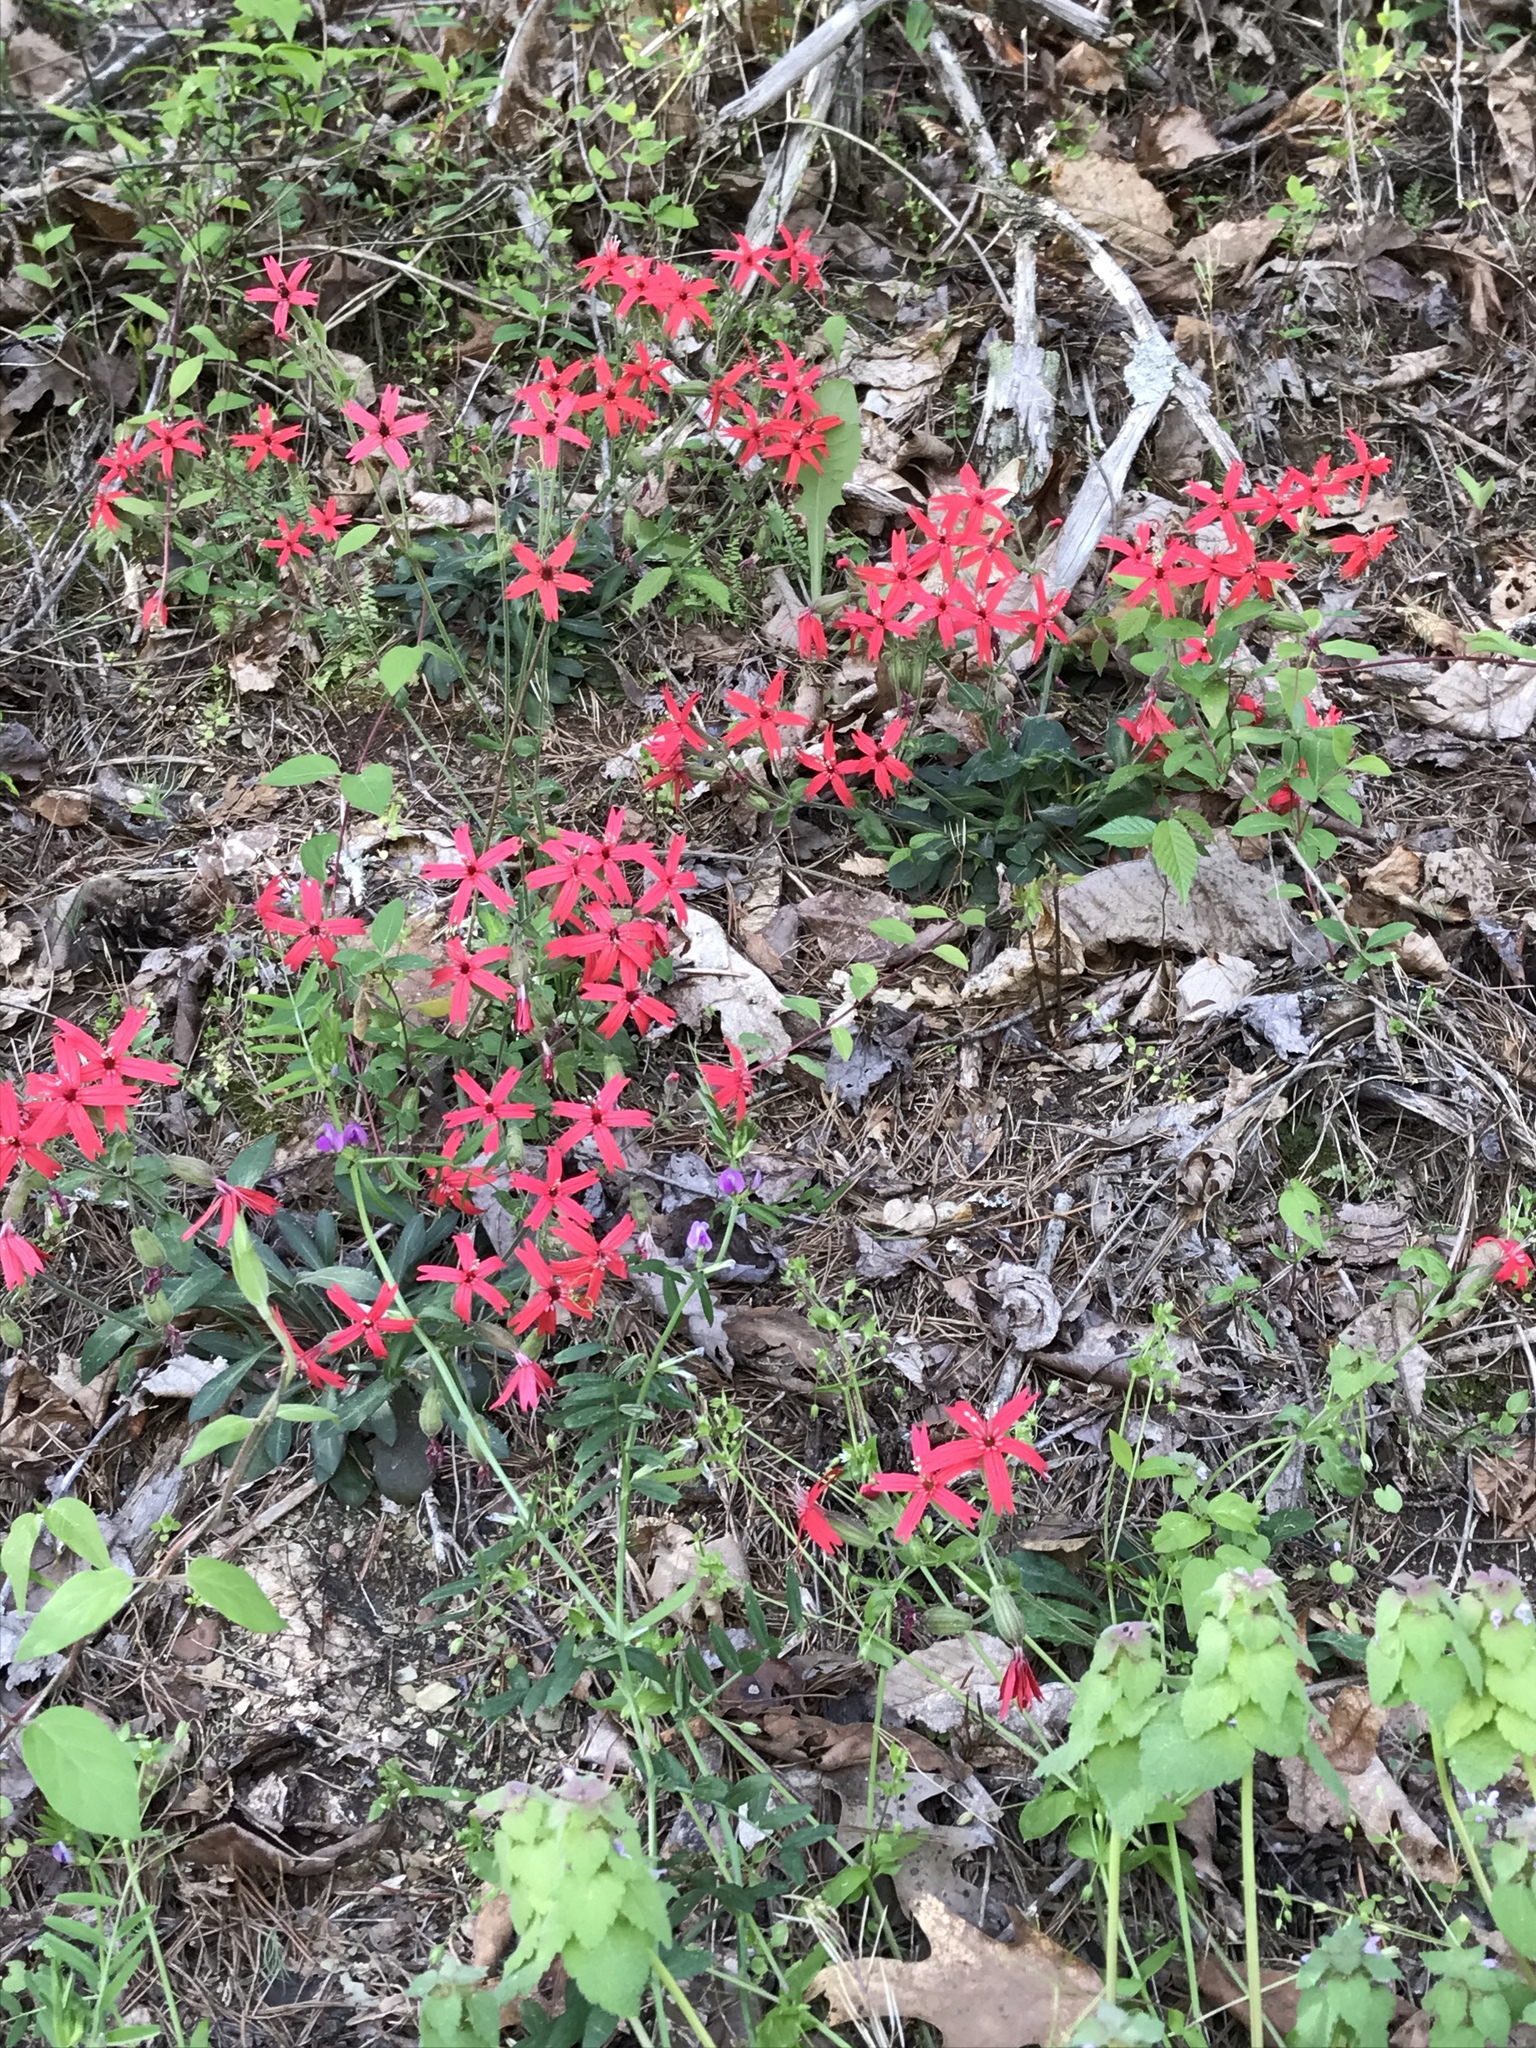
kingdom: Plantae
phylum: Tracheophyta
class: Magnoliopsida
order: Caryophyllales
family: Caryophyllaceae
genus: Silene
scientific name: Silene virginica
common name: Fire-pink
